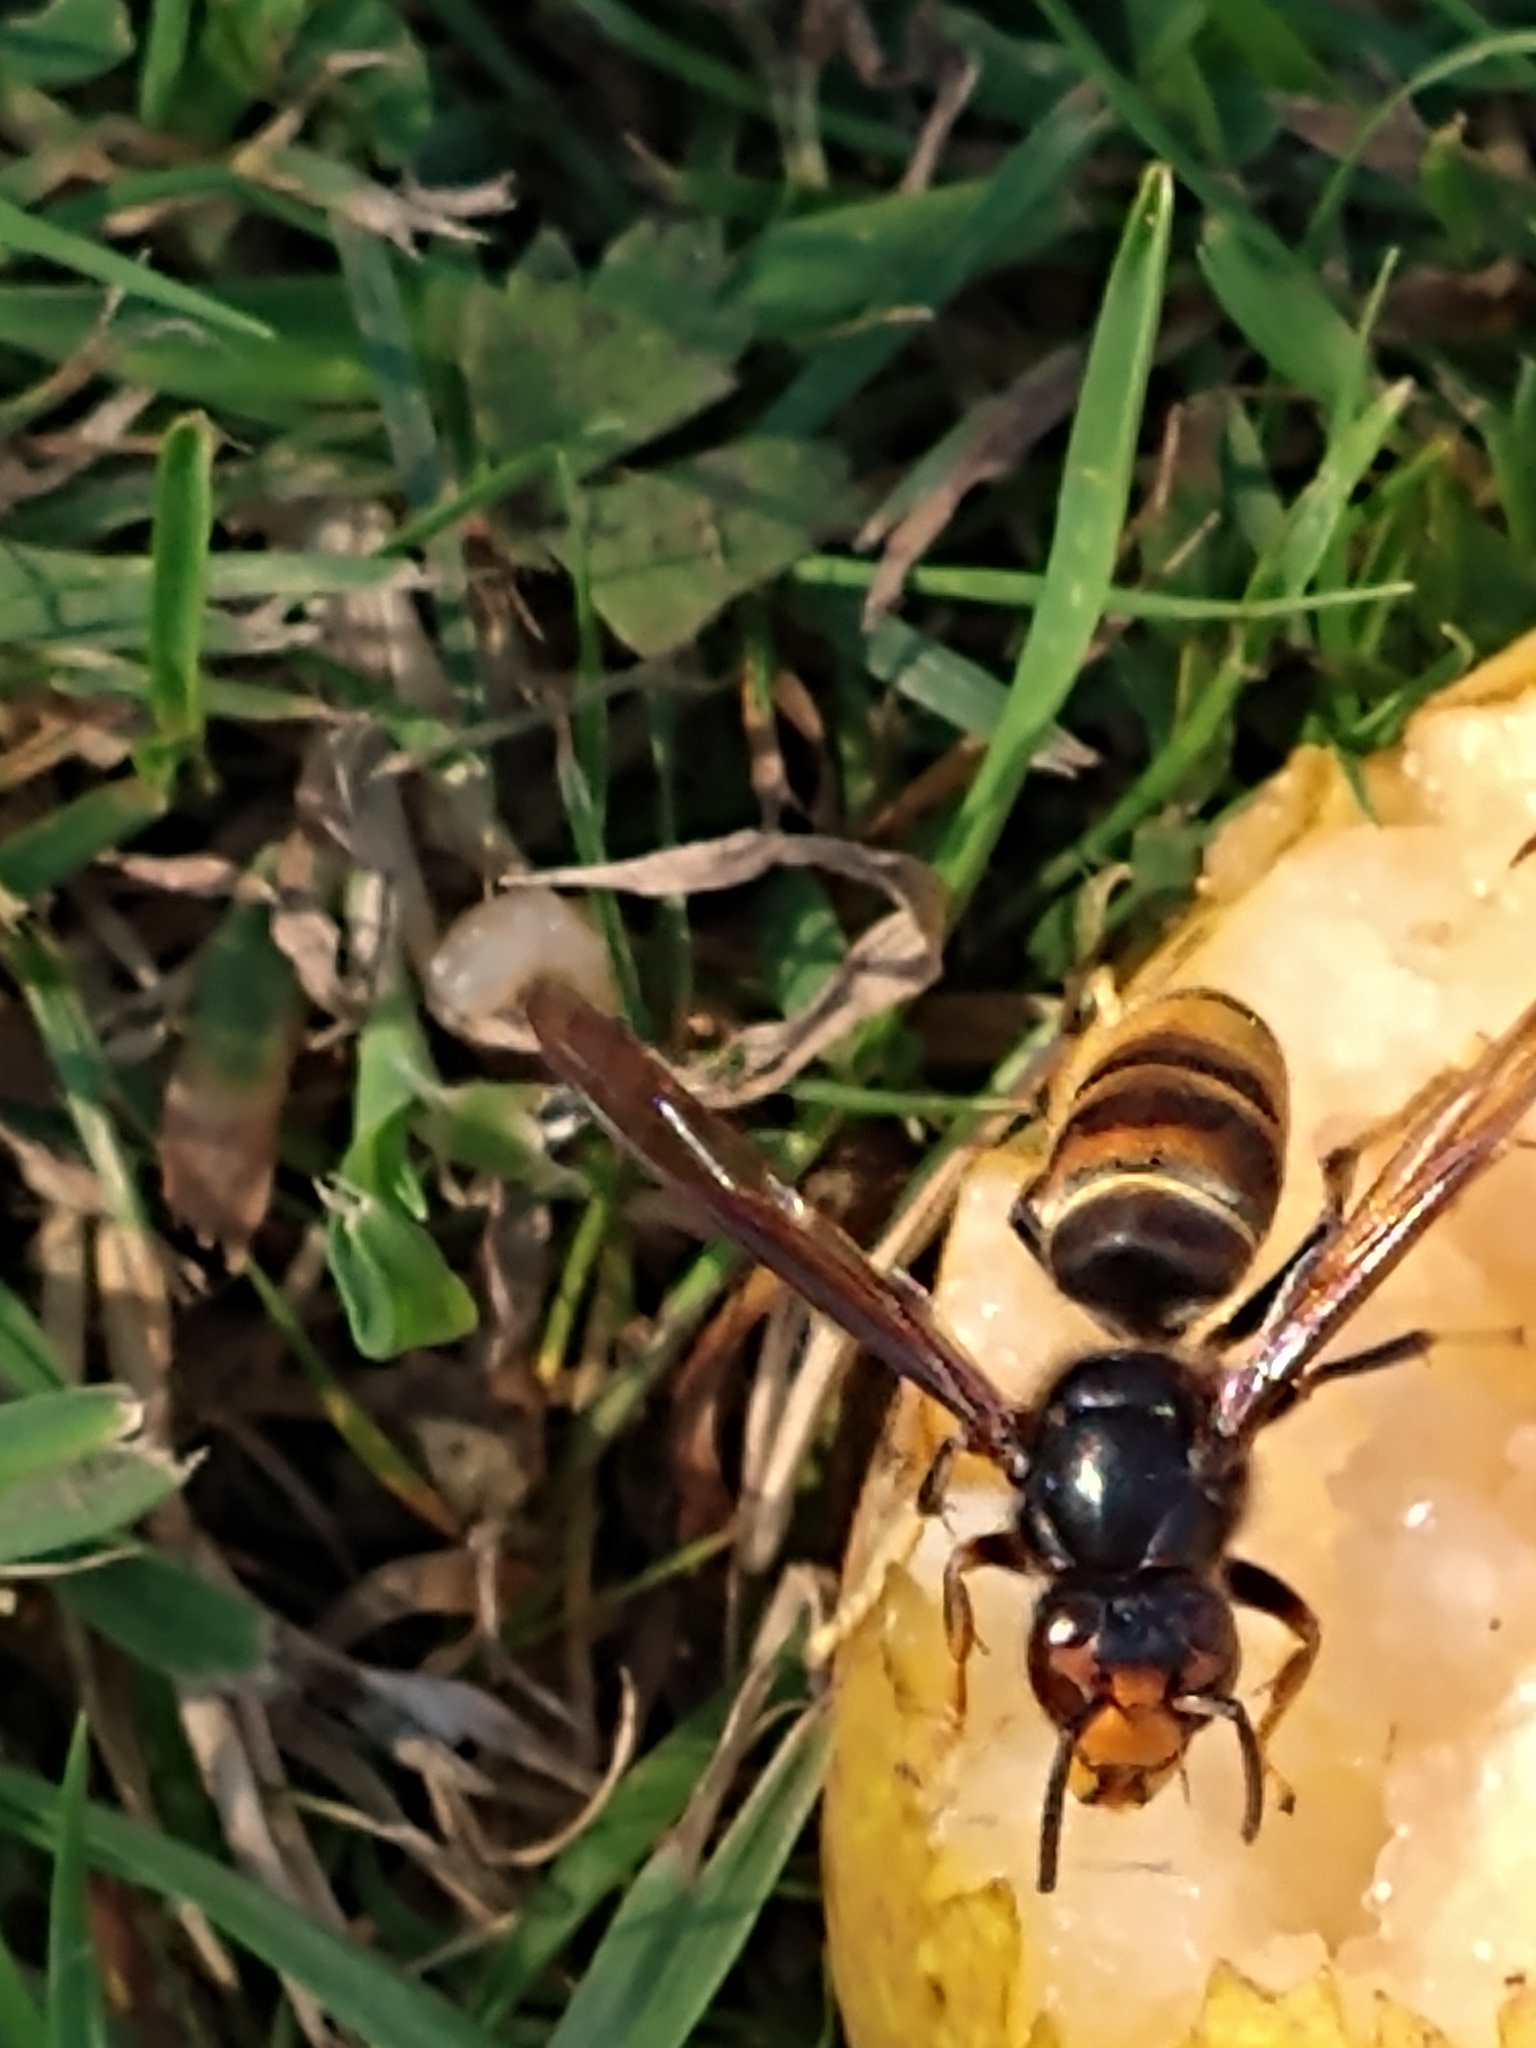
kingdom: Animalia
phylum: Arthropoda
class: Insecta
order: Hymenoptera
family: Vespidae
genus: Vespa
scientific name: Vespa velutina
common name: Asian hornet
